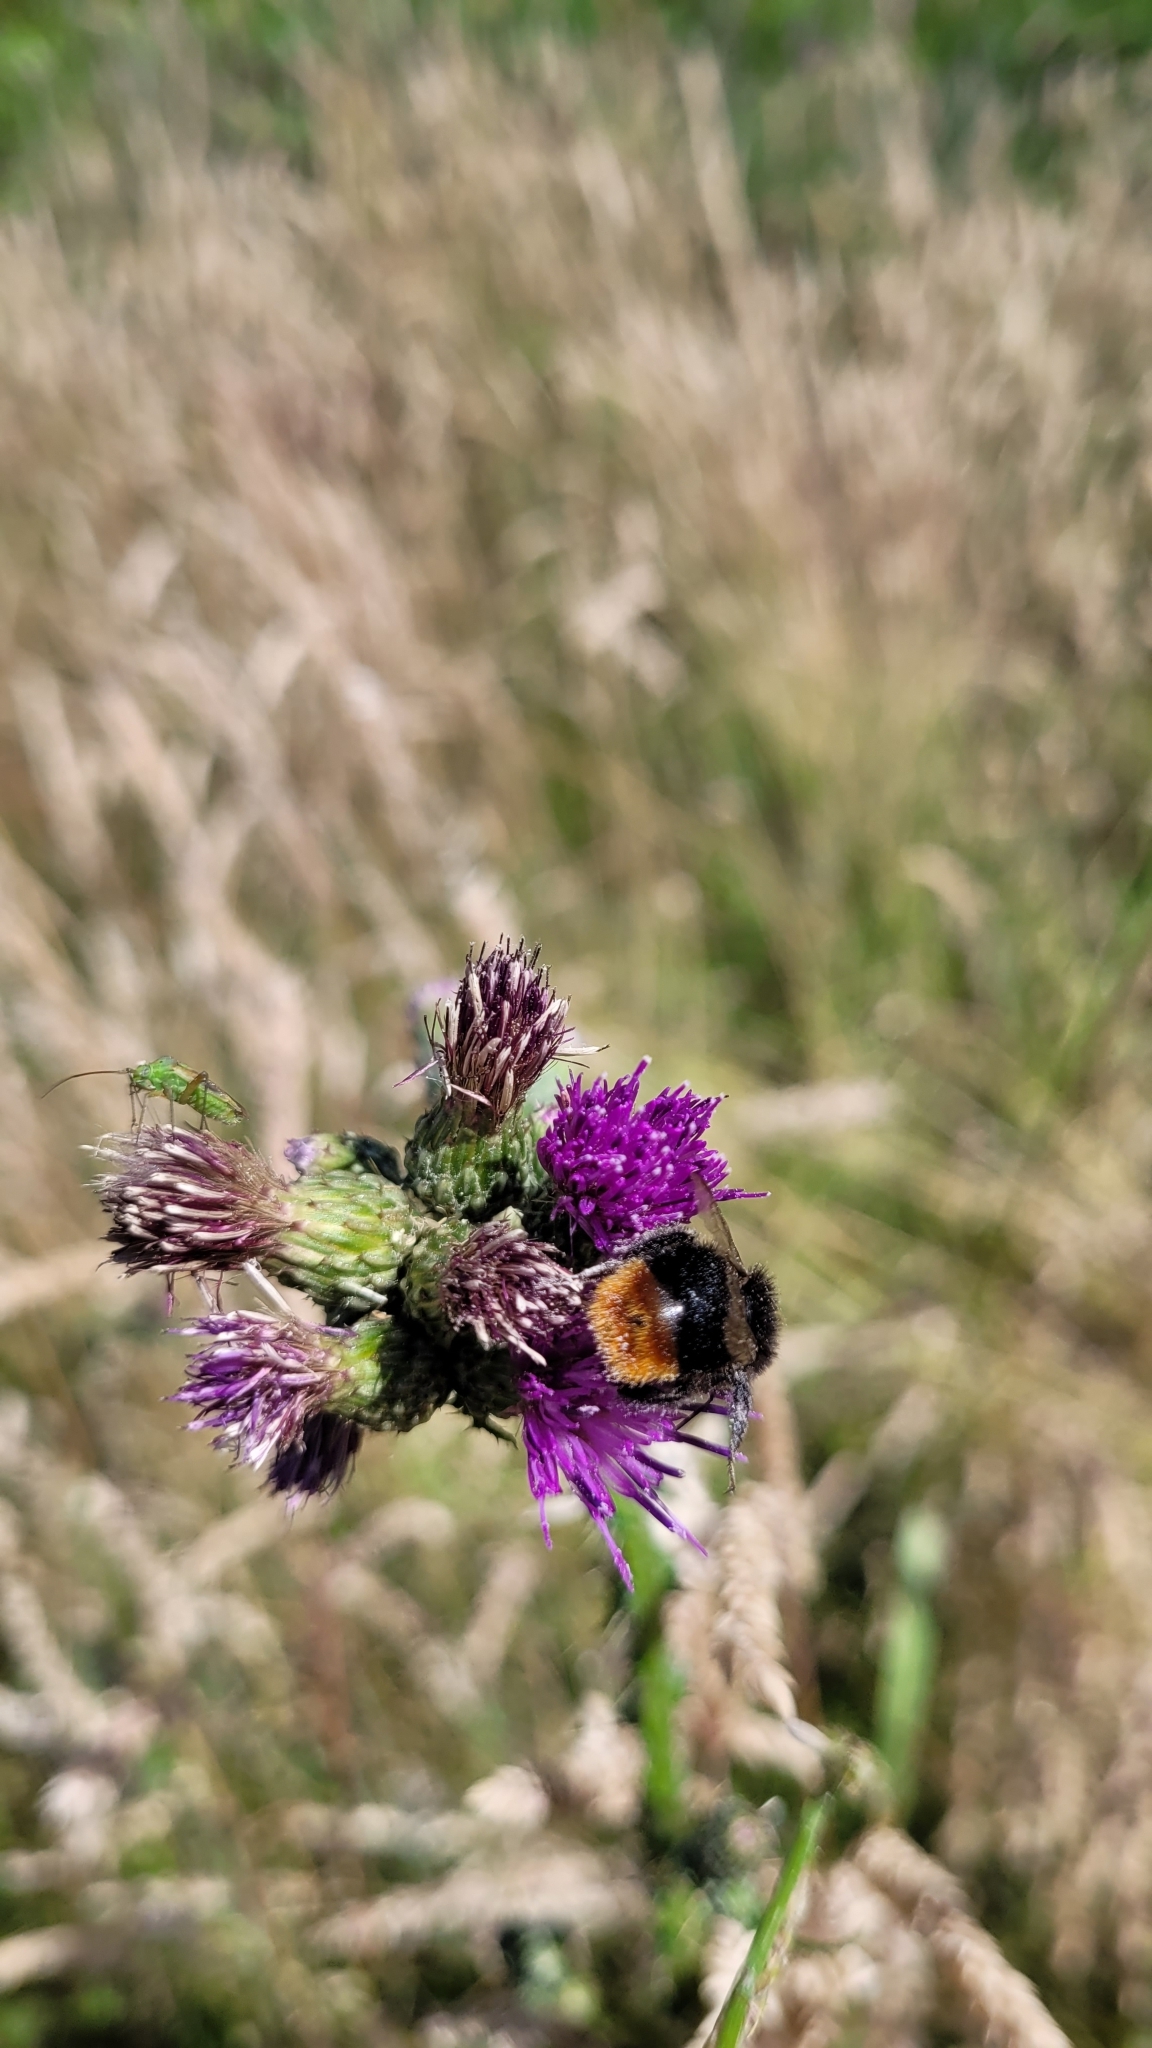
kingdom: Animalia
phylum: Arthropoda
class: Insecta
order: Hymenoptera
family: Apidae
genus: Bombus
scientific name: Bombus lapidarius
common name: Large red-tailed humble-bee
